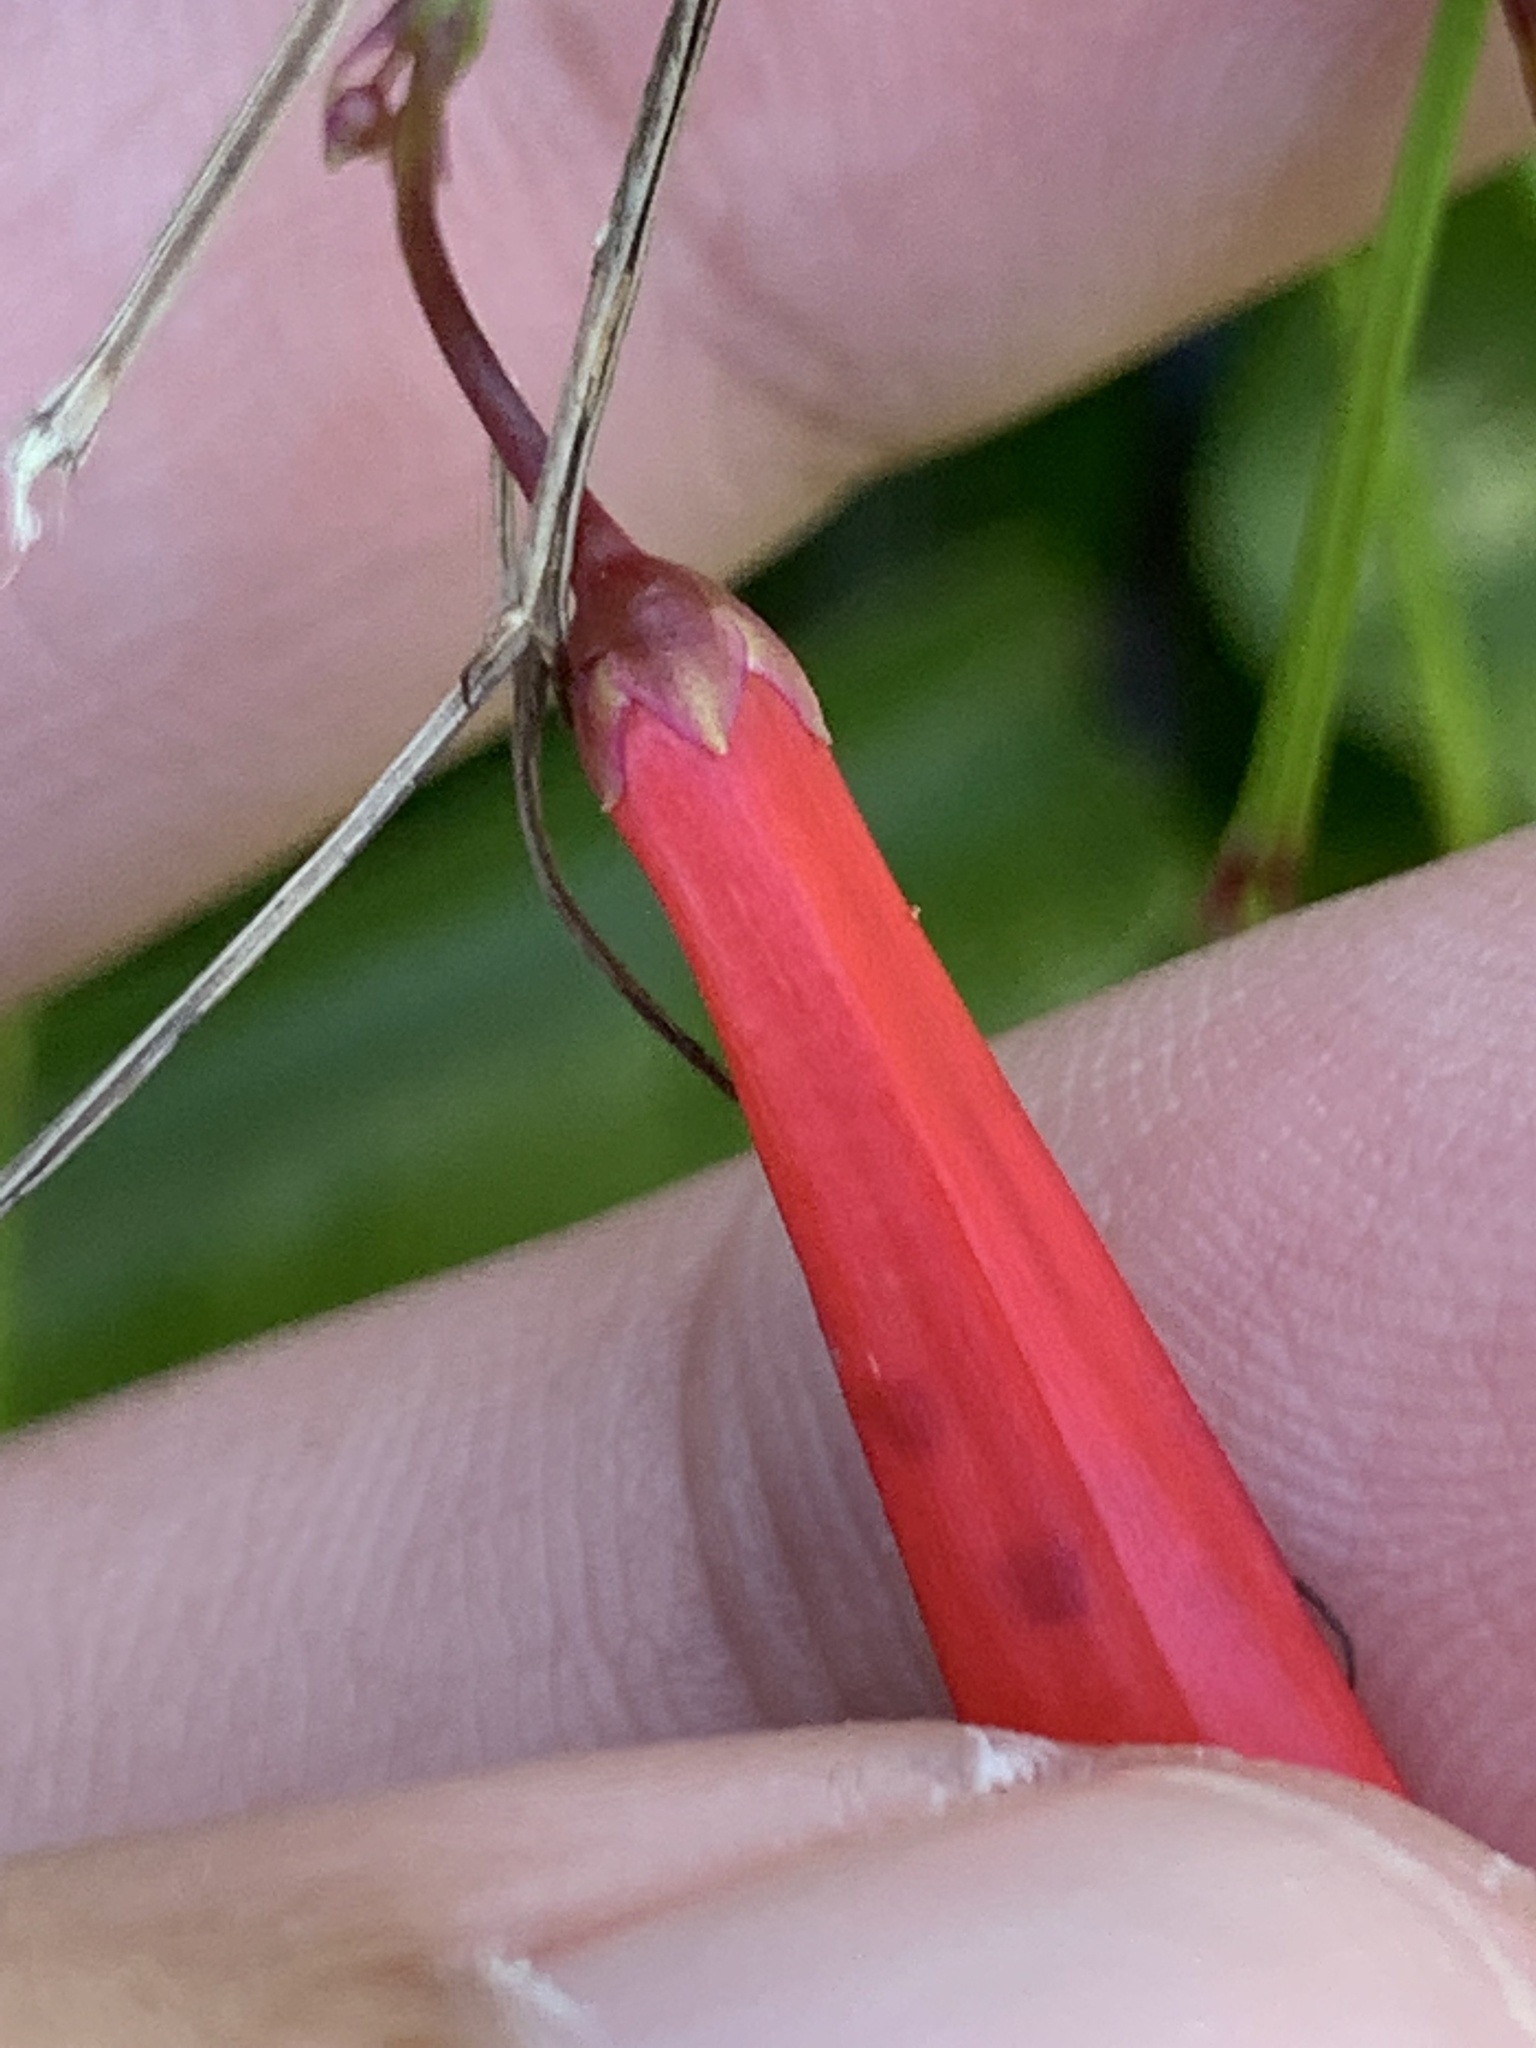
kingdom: Plantae
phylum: Tracheophyta
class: Magnoliopsida
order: Lamiales
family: Plantaginaceae
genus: Russelia
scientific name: Russelia equisetiformis
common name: Fountainbush
